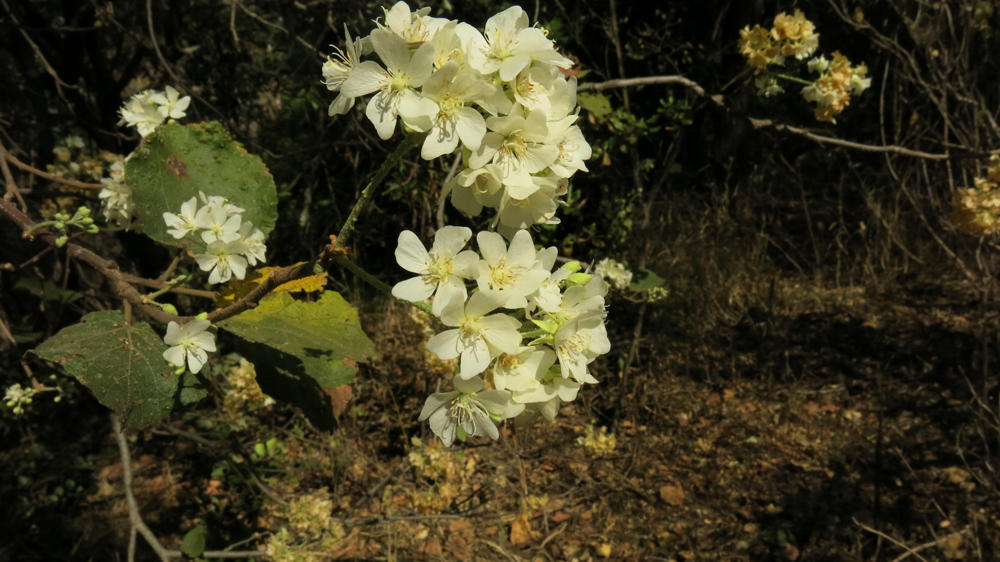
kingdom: Plantae
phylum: Tracheophyta
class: Magnoliopsida
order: Malvales
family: Malvaceae
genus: Dombeya
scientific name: Dombeya rotundifolia
